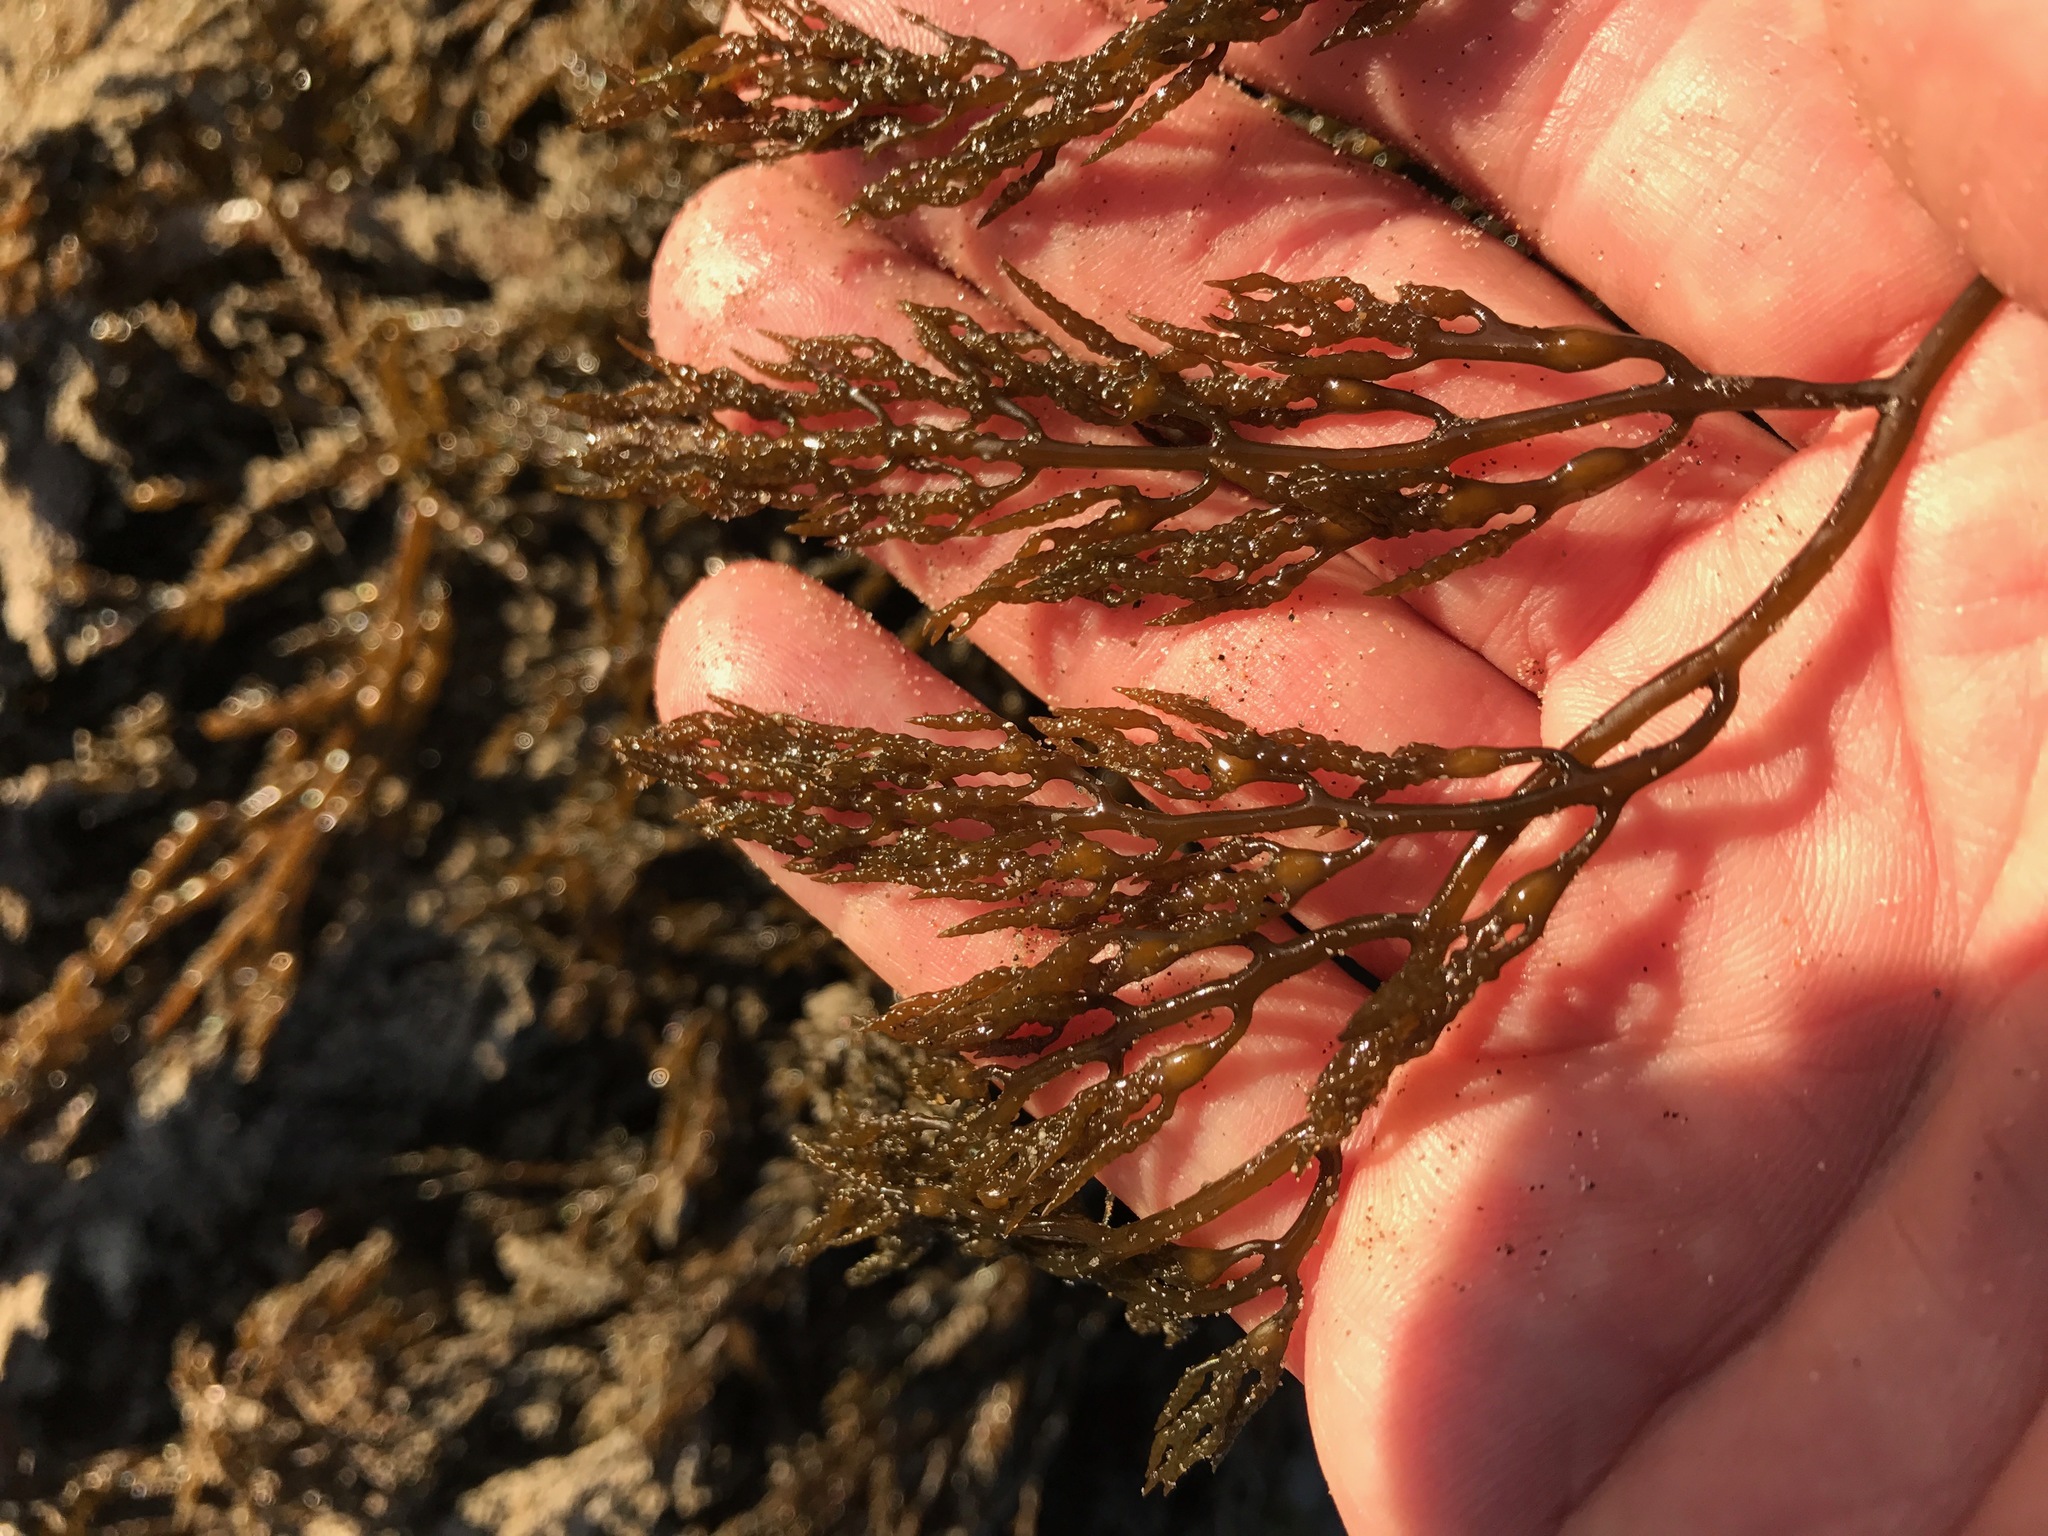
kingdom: Chromista
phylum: Ochrophyta
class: Phaeophyceae
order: Fucales
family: Sargassaceae
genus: Stephanocystis
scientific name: Stephanocystis
